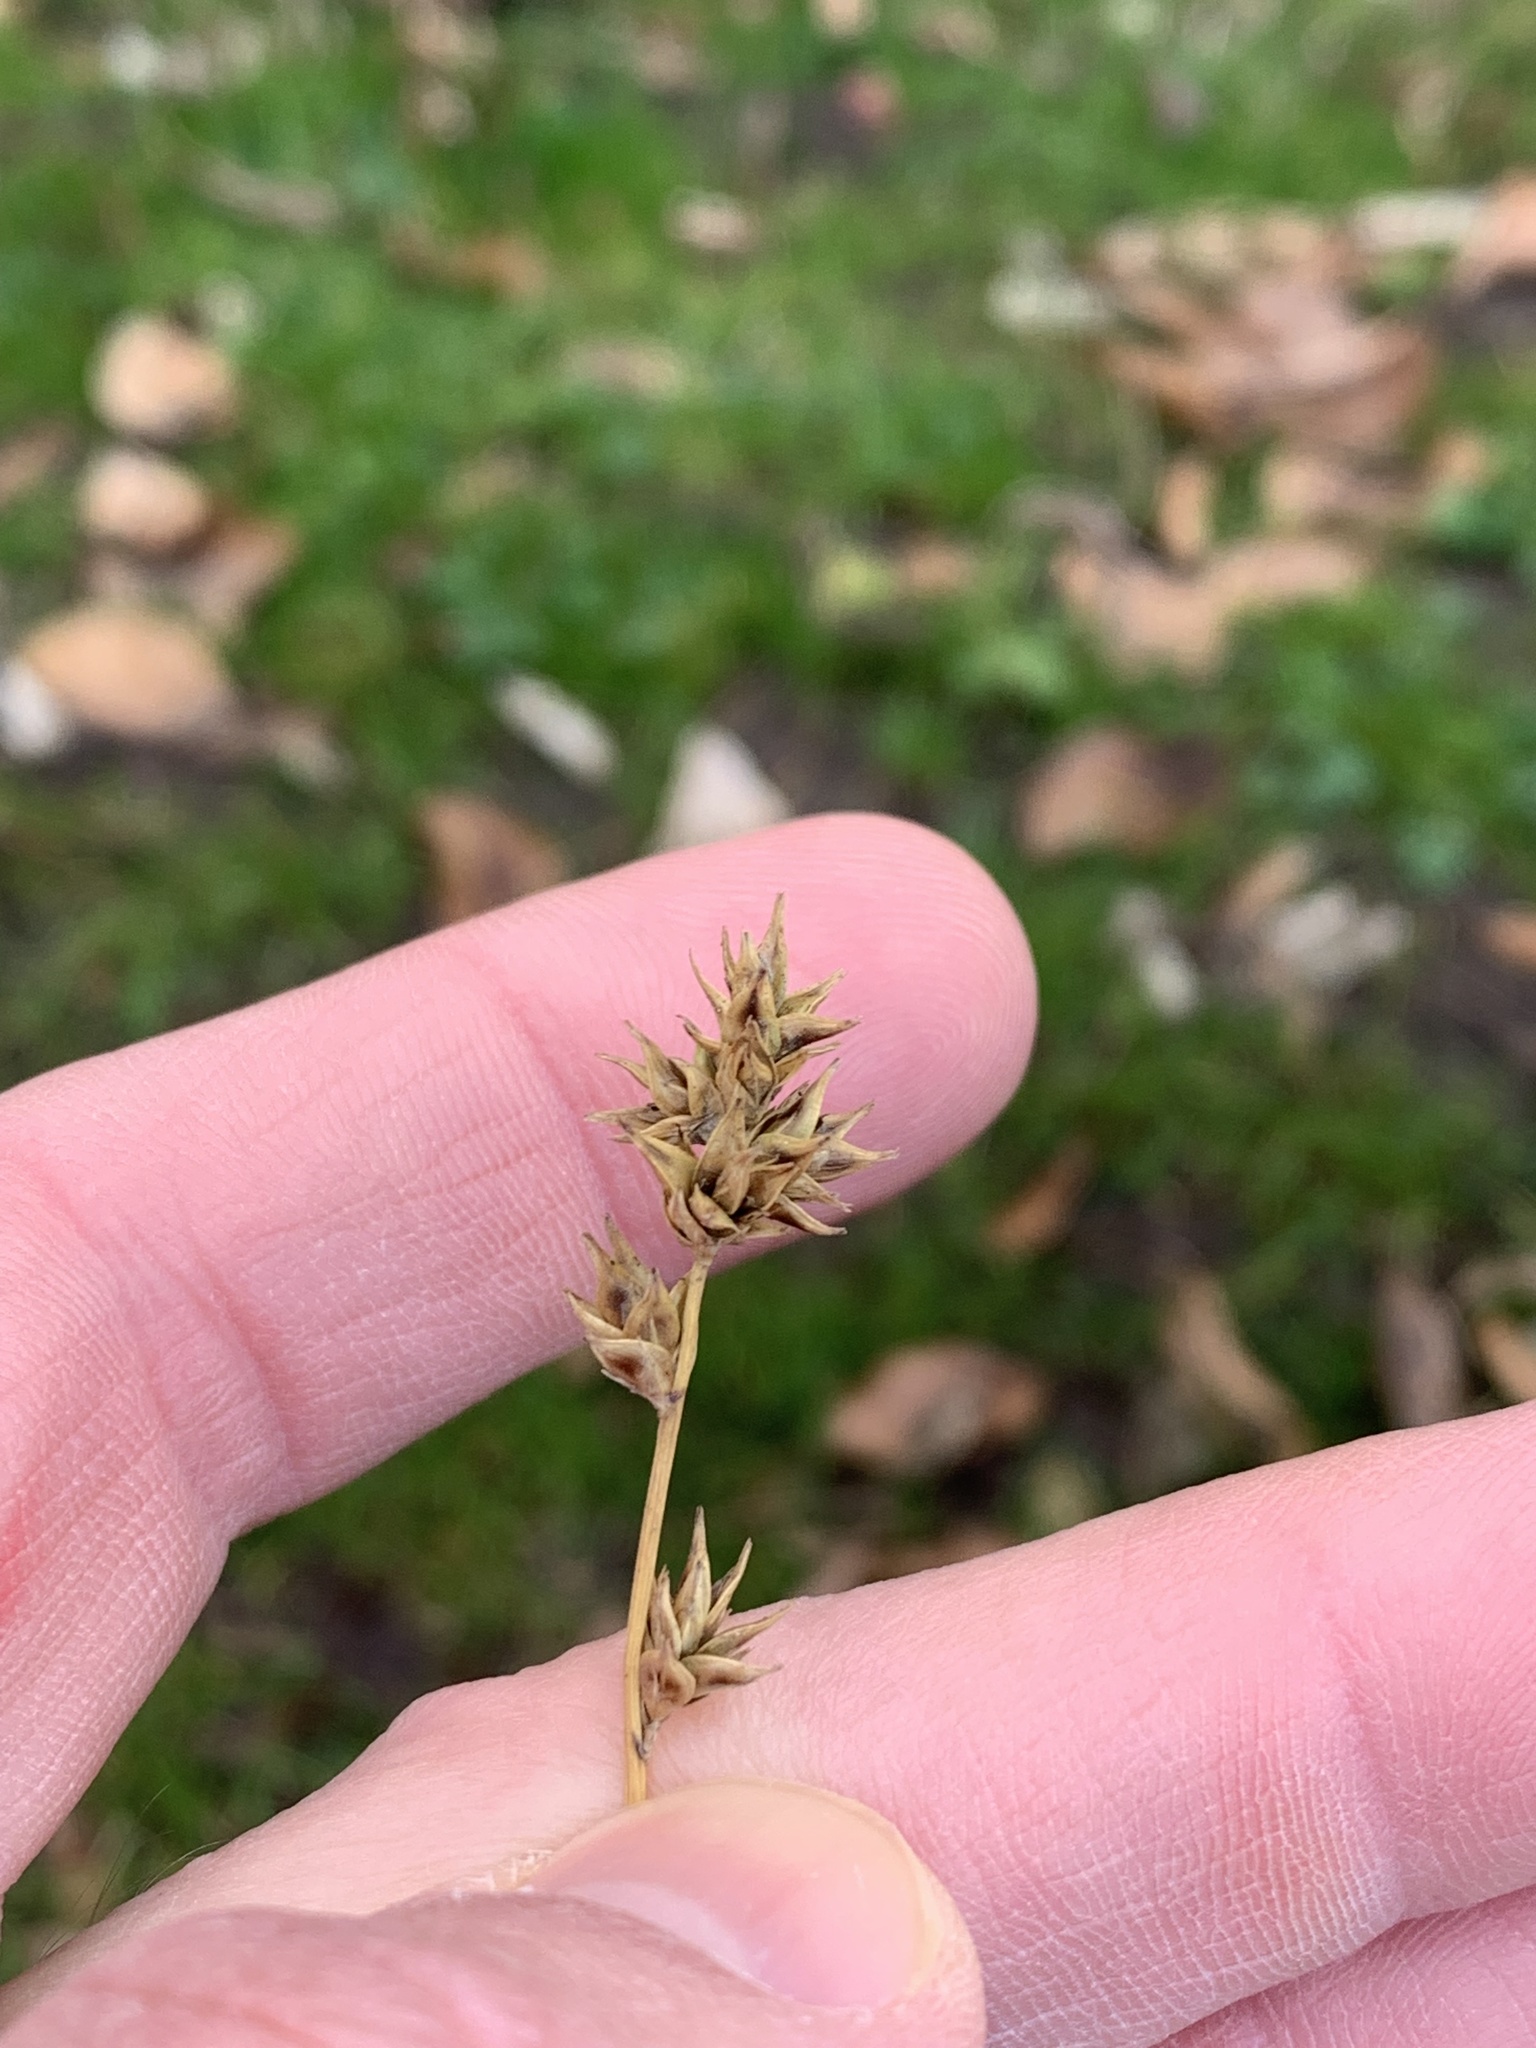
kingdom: Plantae
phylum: Tracheophyta
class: Liliopsida
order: Poales
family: Cyperaceae
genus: Carex
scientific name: Carex leersii
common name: Leers' sedge
